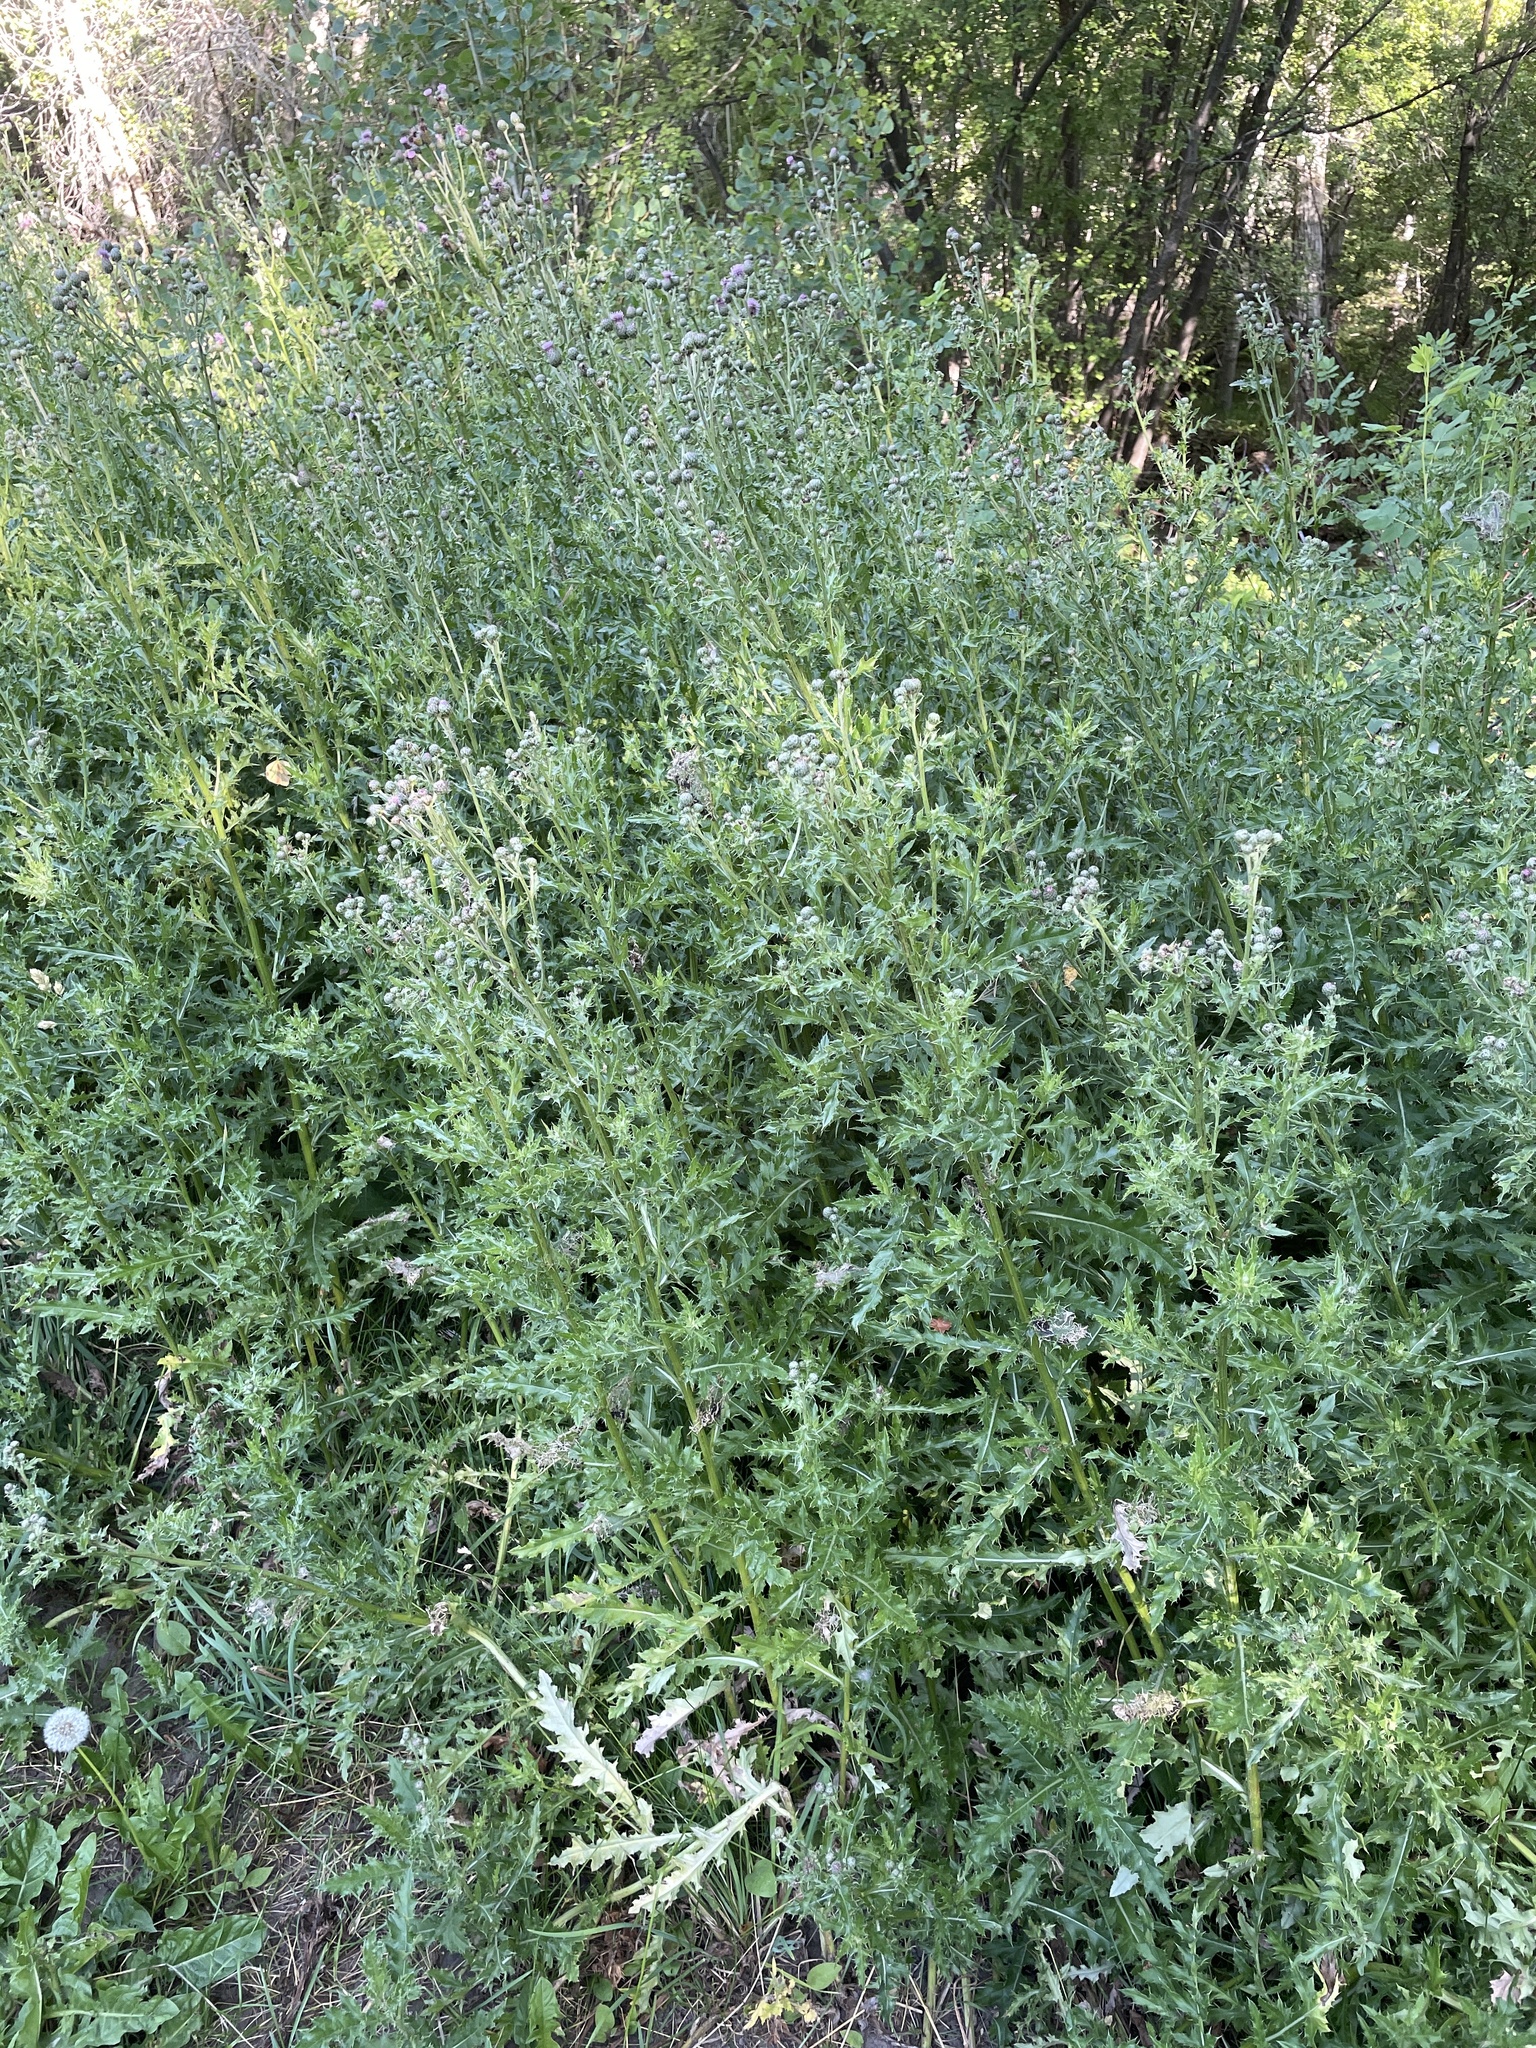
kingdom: Plantae
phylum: Tracheophyta
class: Magnoliopsida
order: Asterales
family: Asteraceae
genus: Cirsium
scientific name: Cirsium arvense
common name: Creeping thistle
